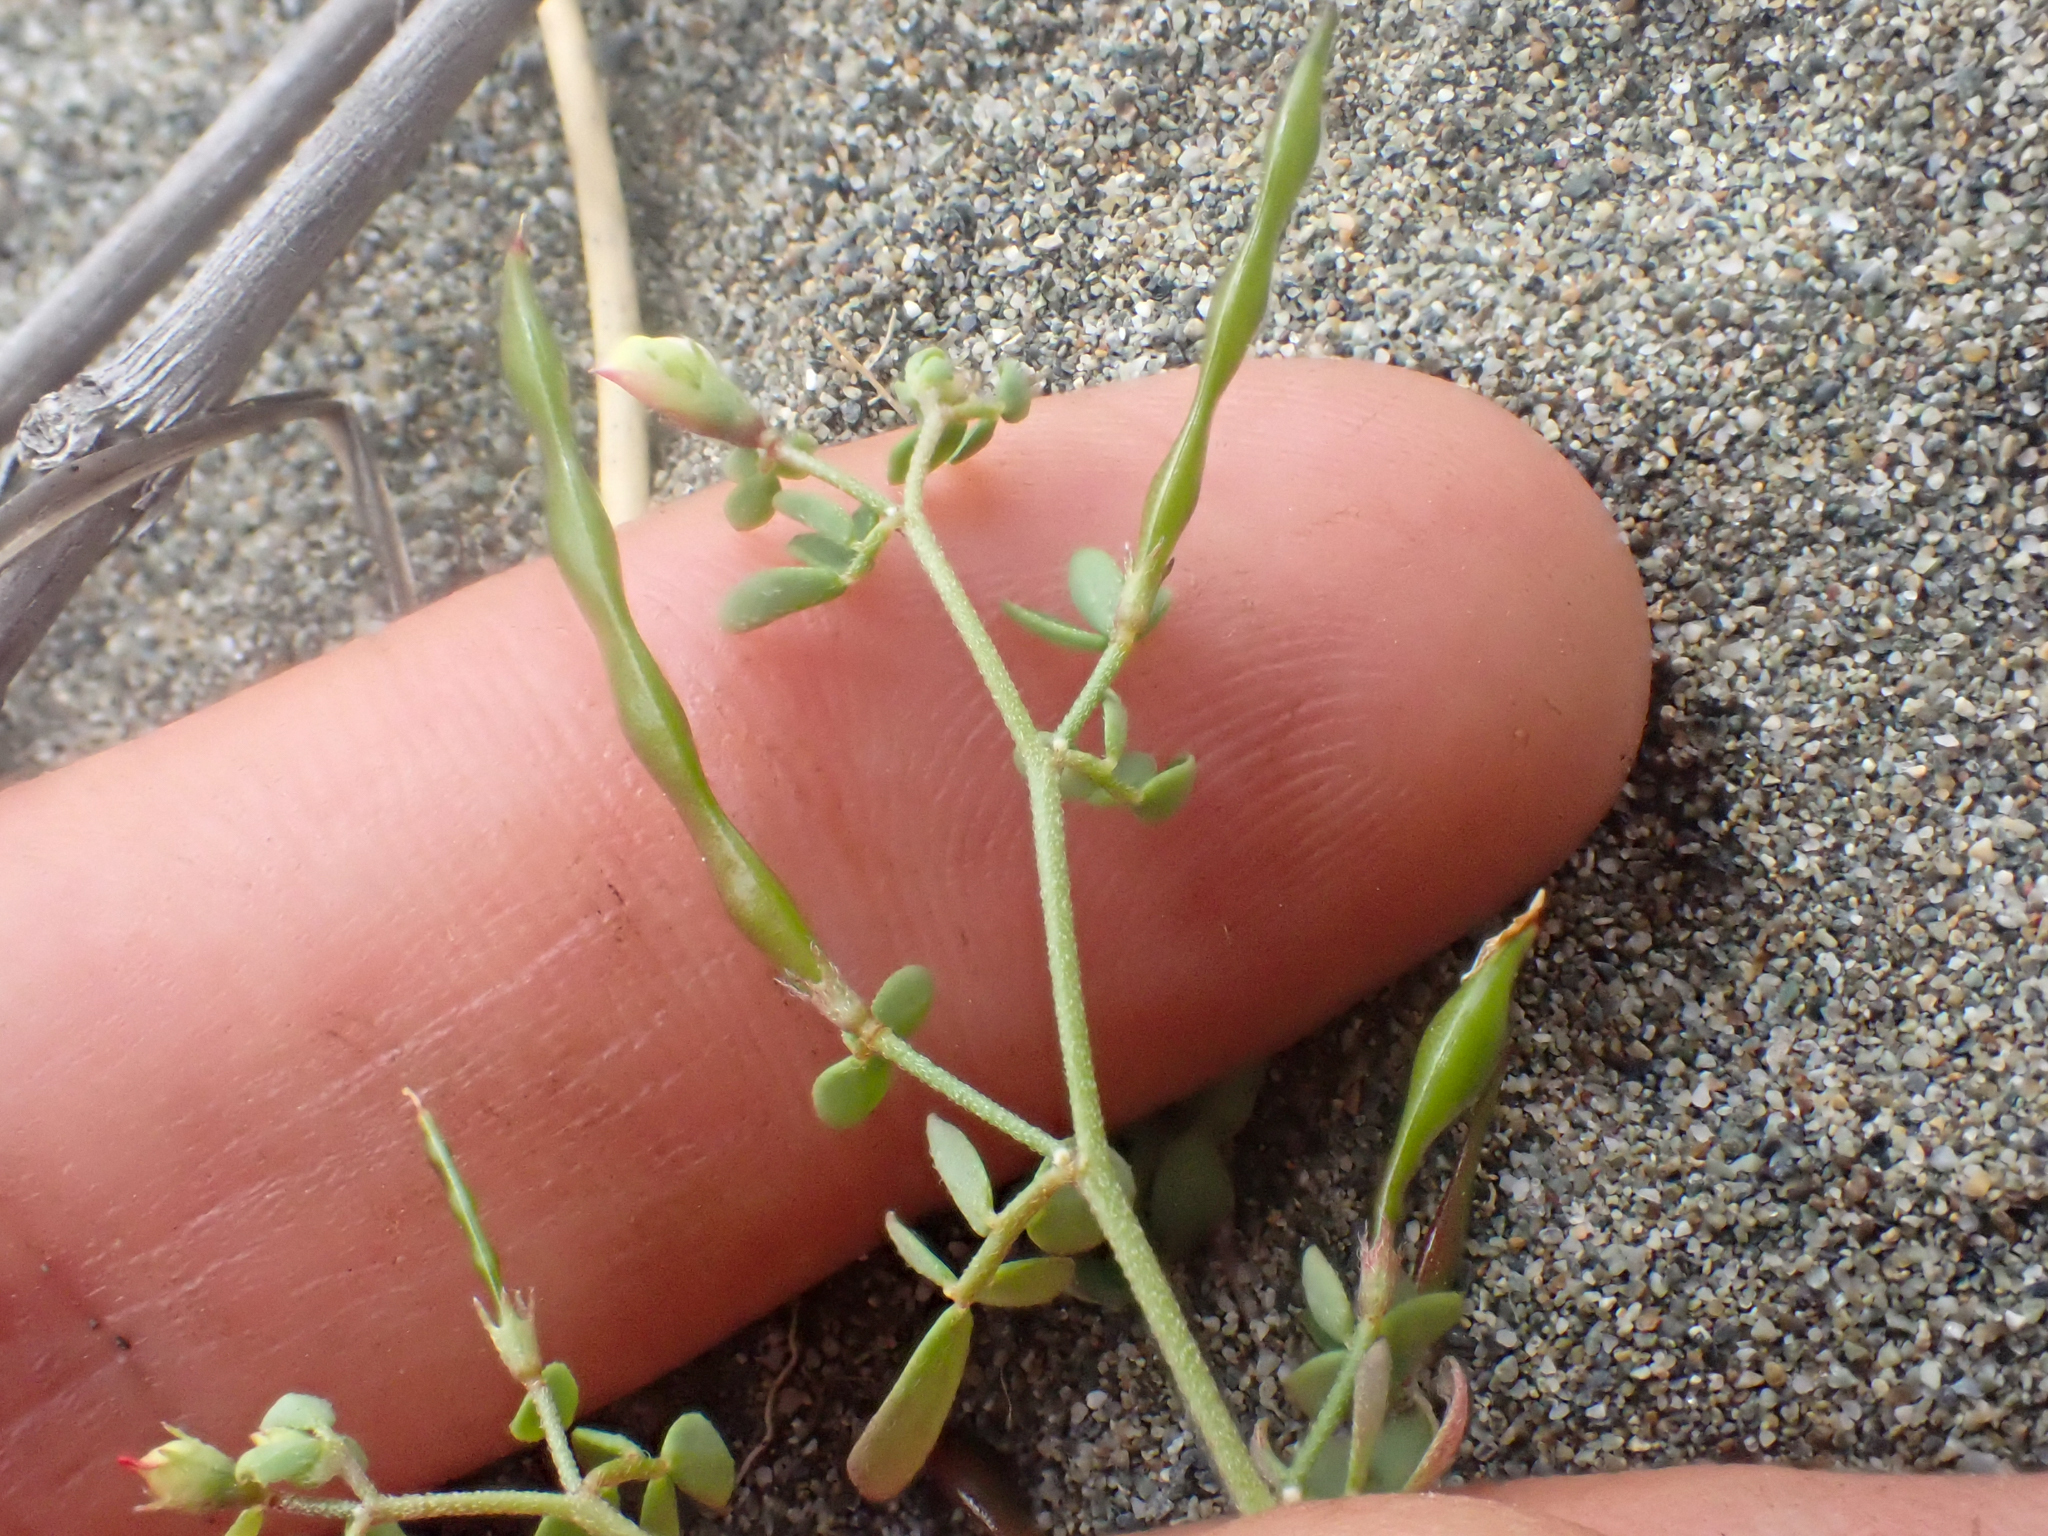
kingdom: Plantae
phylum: Tracheophyta
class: Magnoliopsida
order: Fabales
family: Fabaceae
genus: Acmispon
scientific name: Acmispon parviflorus
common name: Desert deer-vetch
